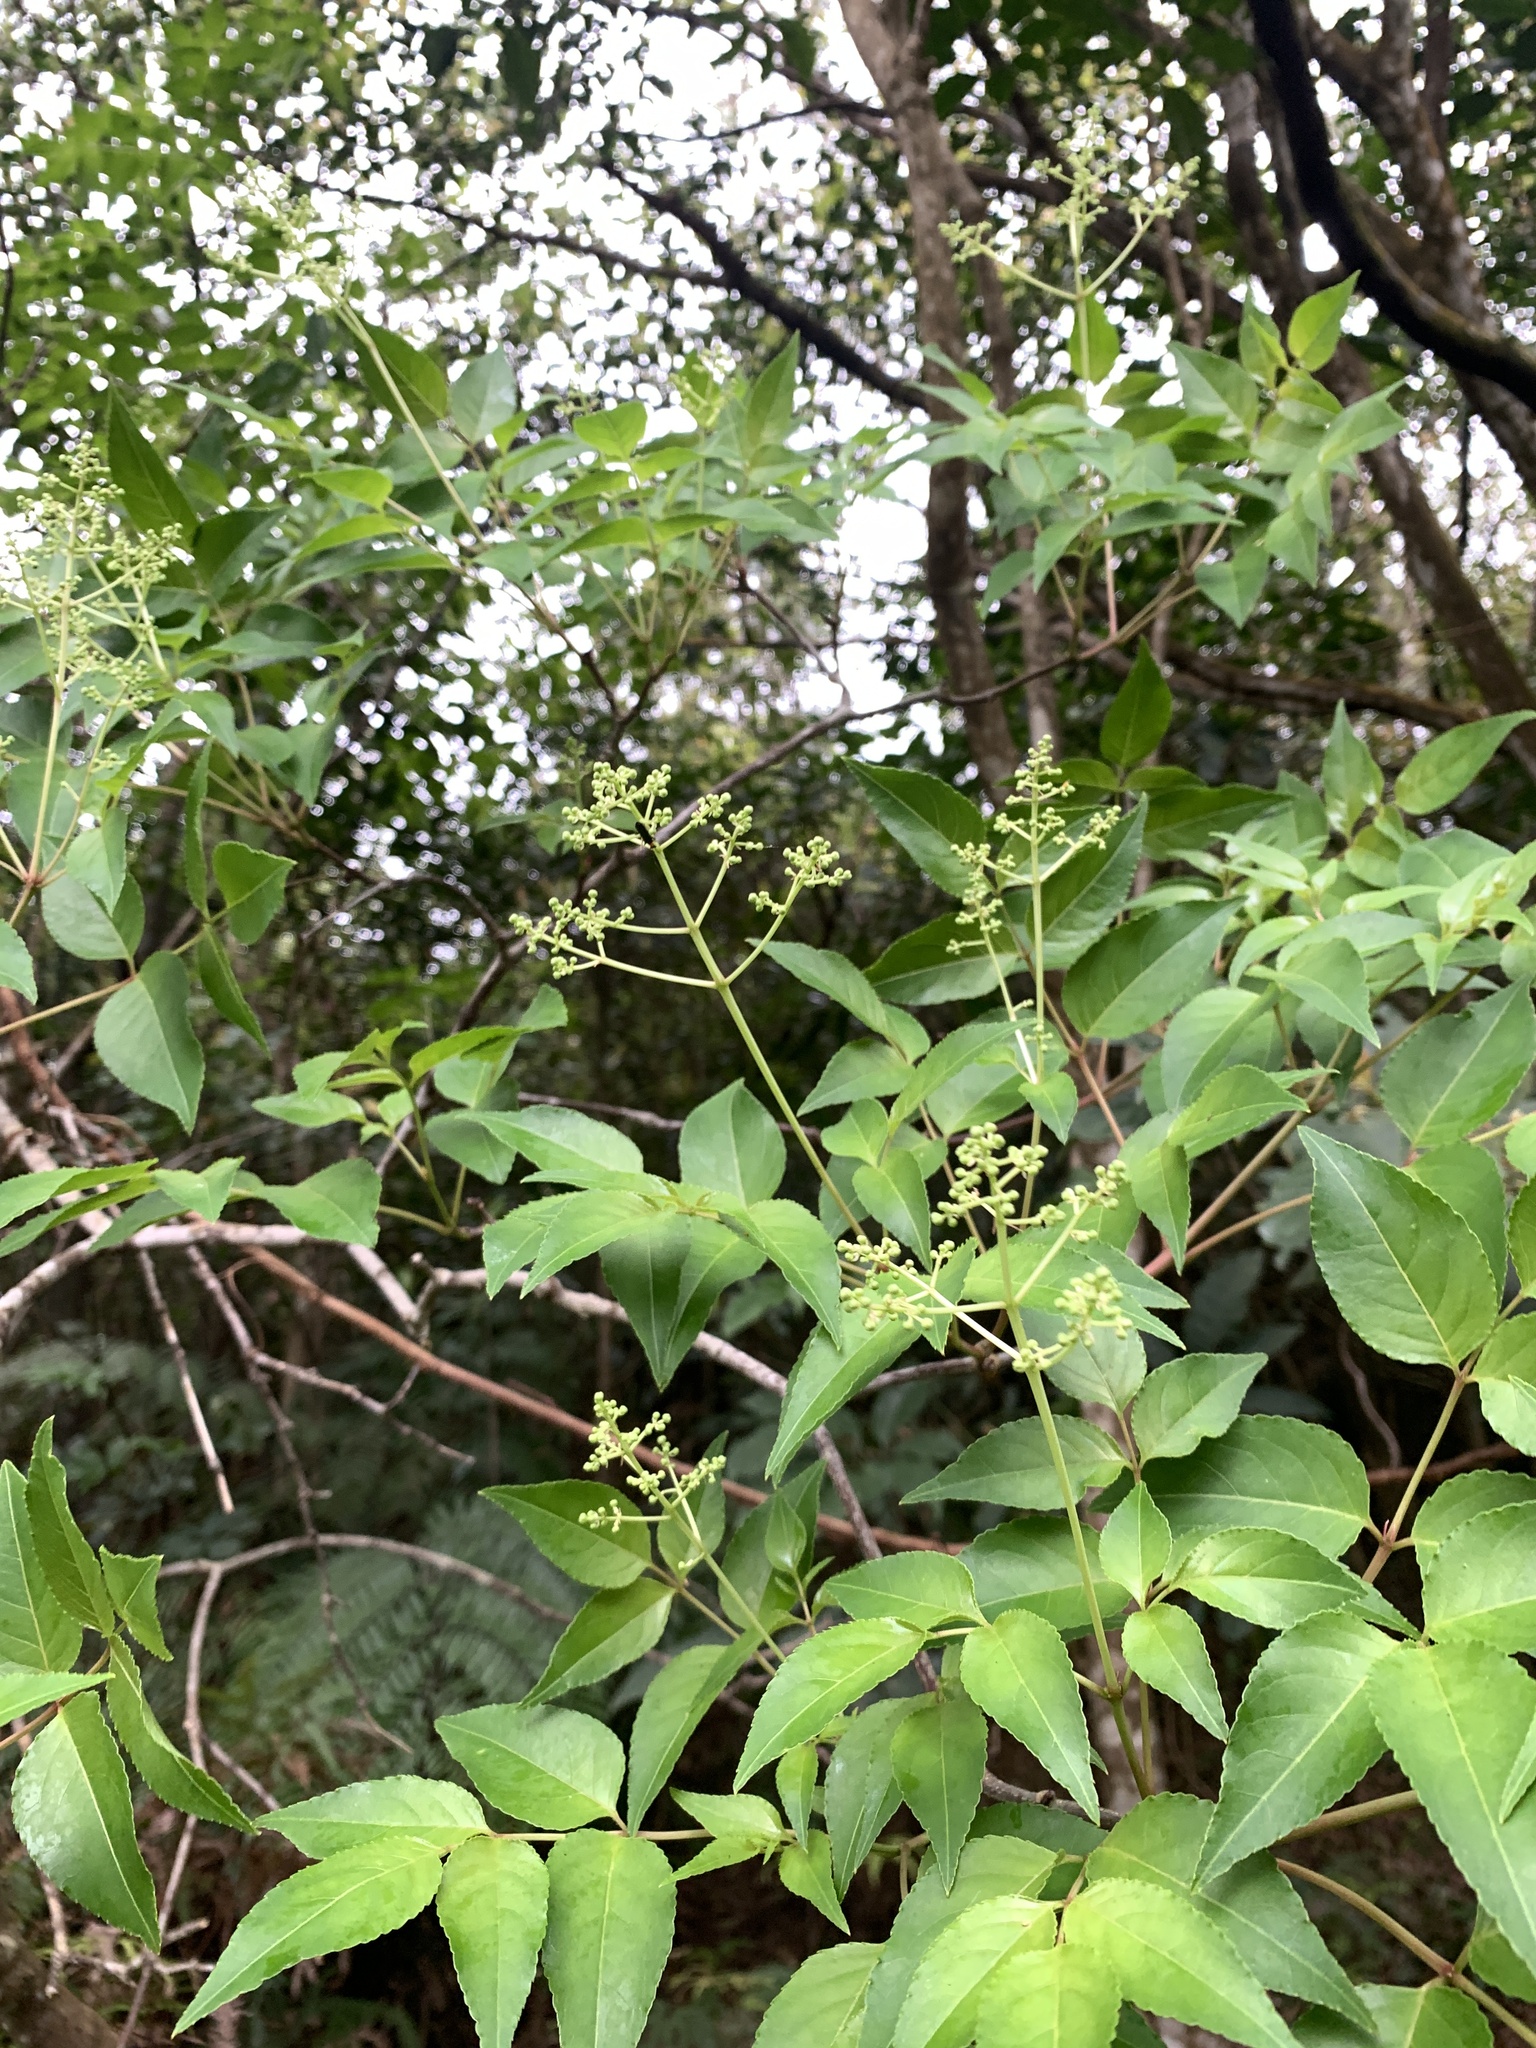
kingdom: Plantae
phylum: Tracheophyta
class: Magnoliopsida
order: Crossosomatales
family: Staphyleaceae
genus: Staphylea
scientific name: Staphylea japonica
